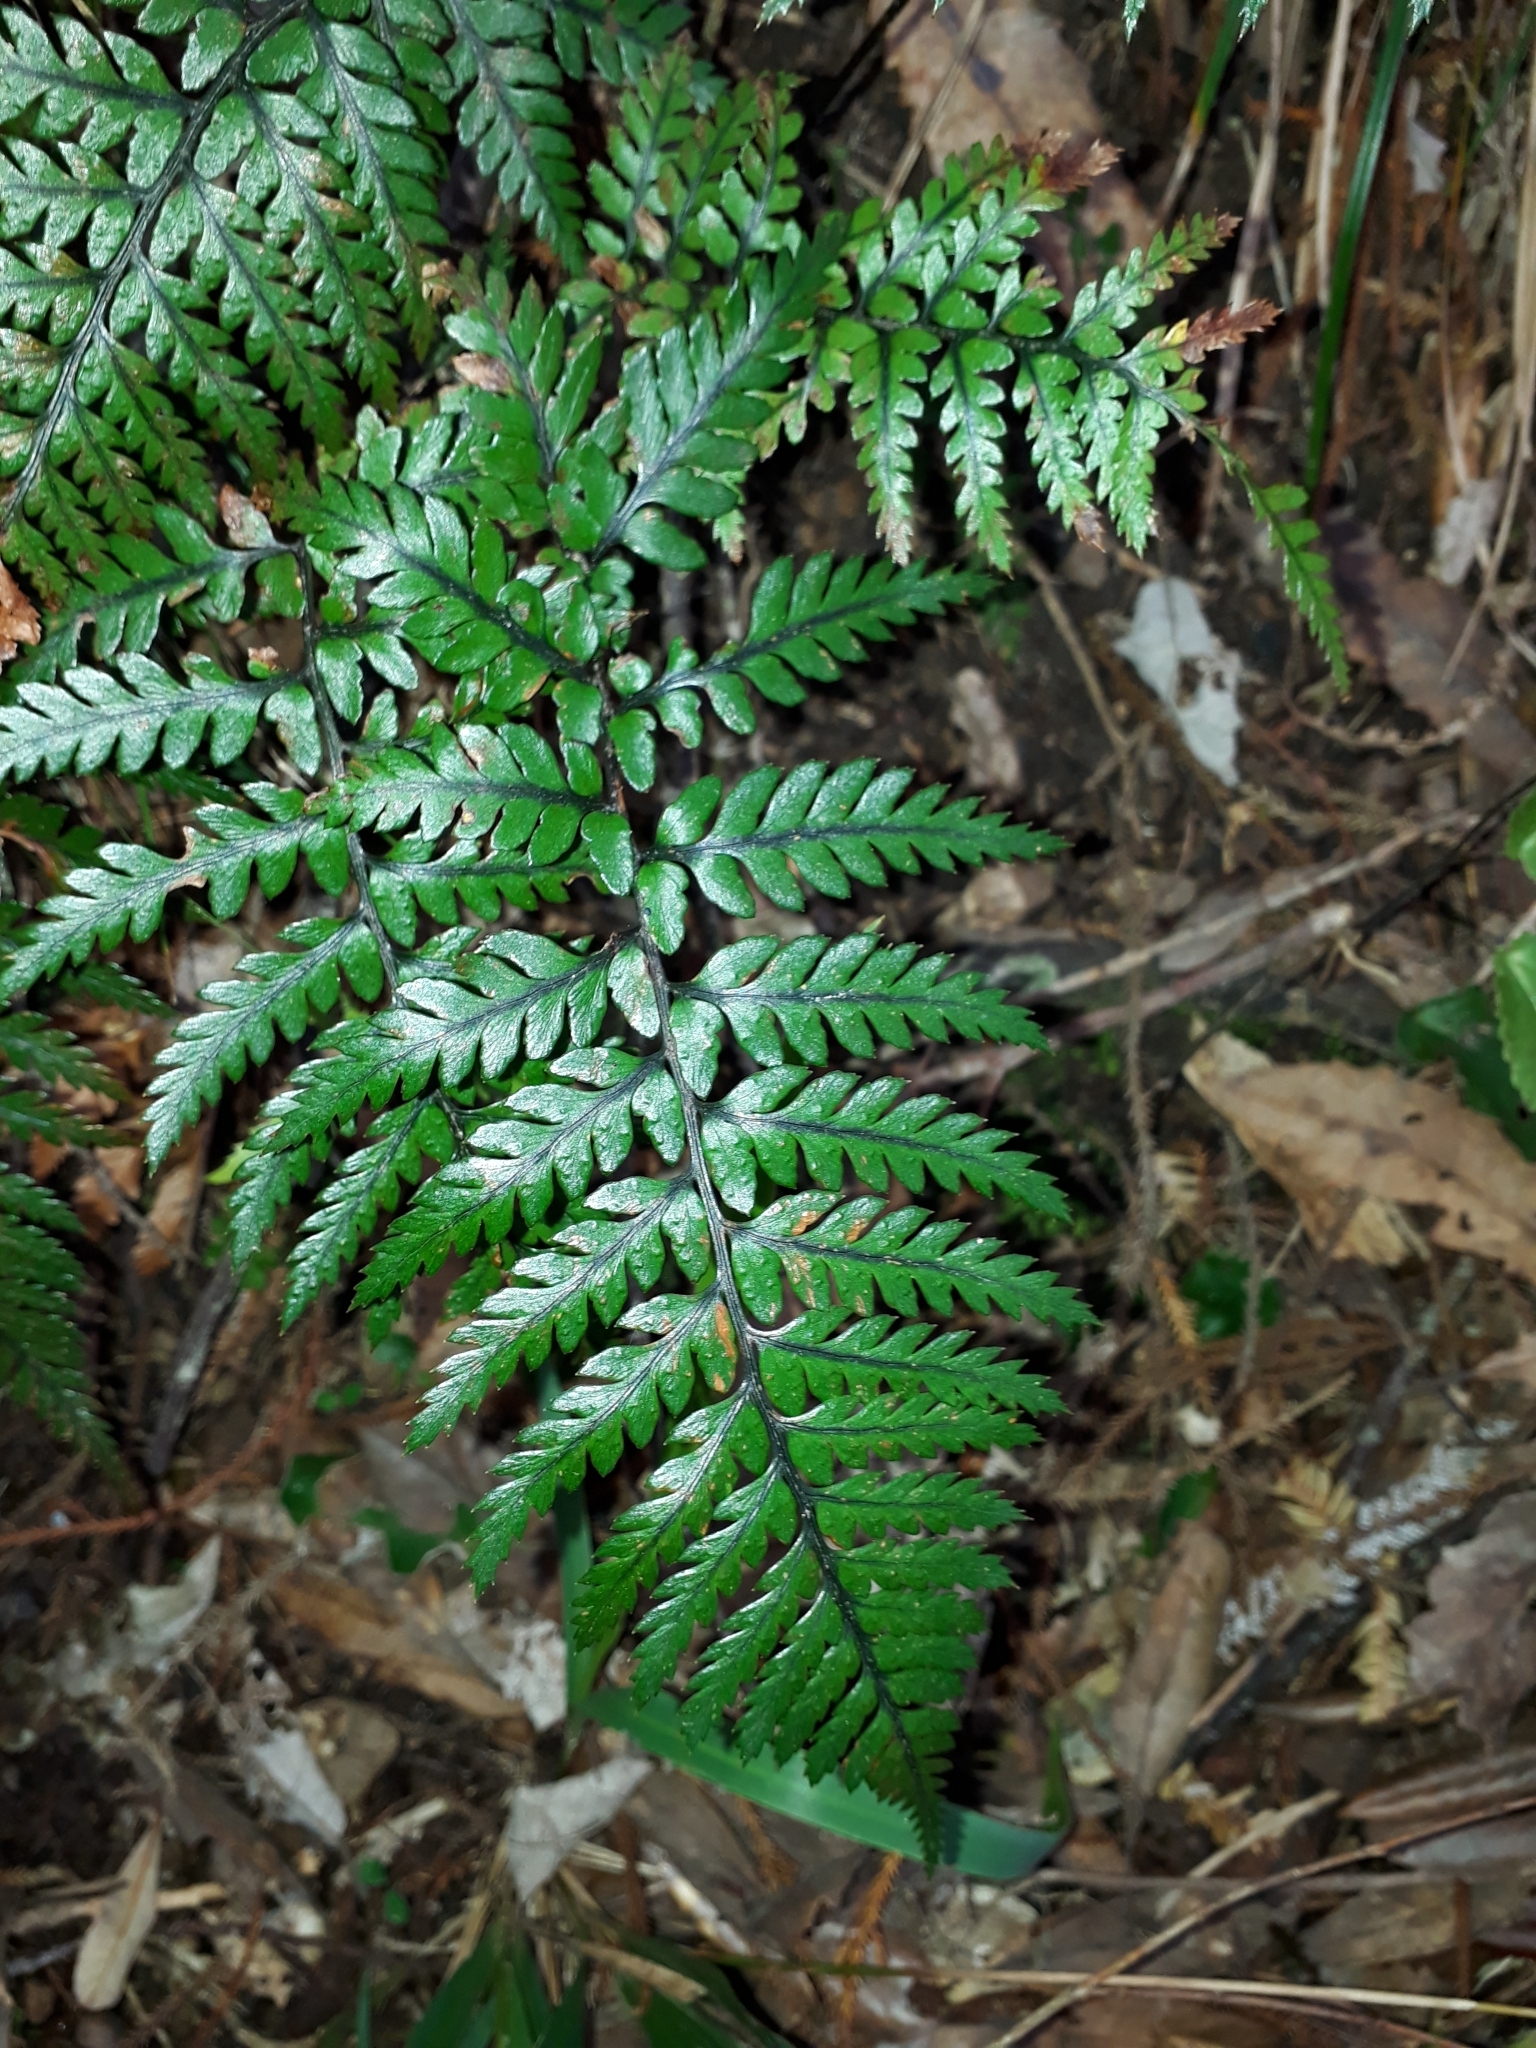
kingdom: Plantae
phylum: Tracheophyta
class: Polypodiopsida
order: Polypodiales
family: Dryopteridaceae
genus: Polystichum
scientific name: Polystichum neozelandicum
